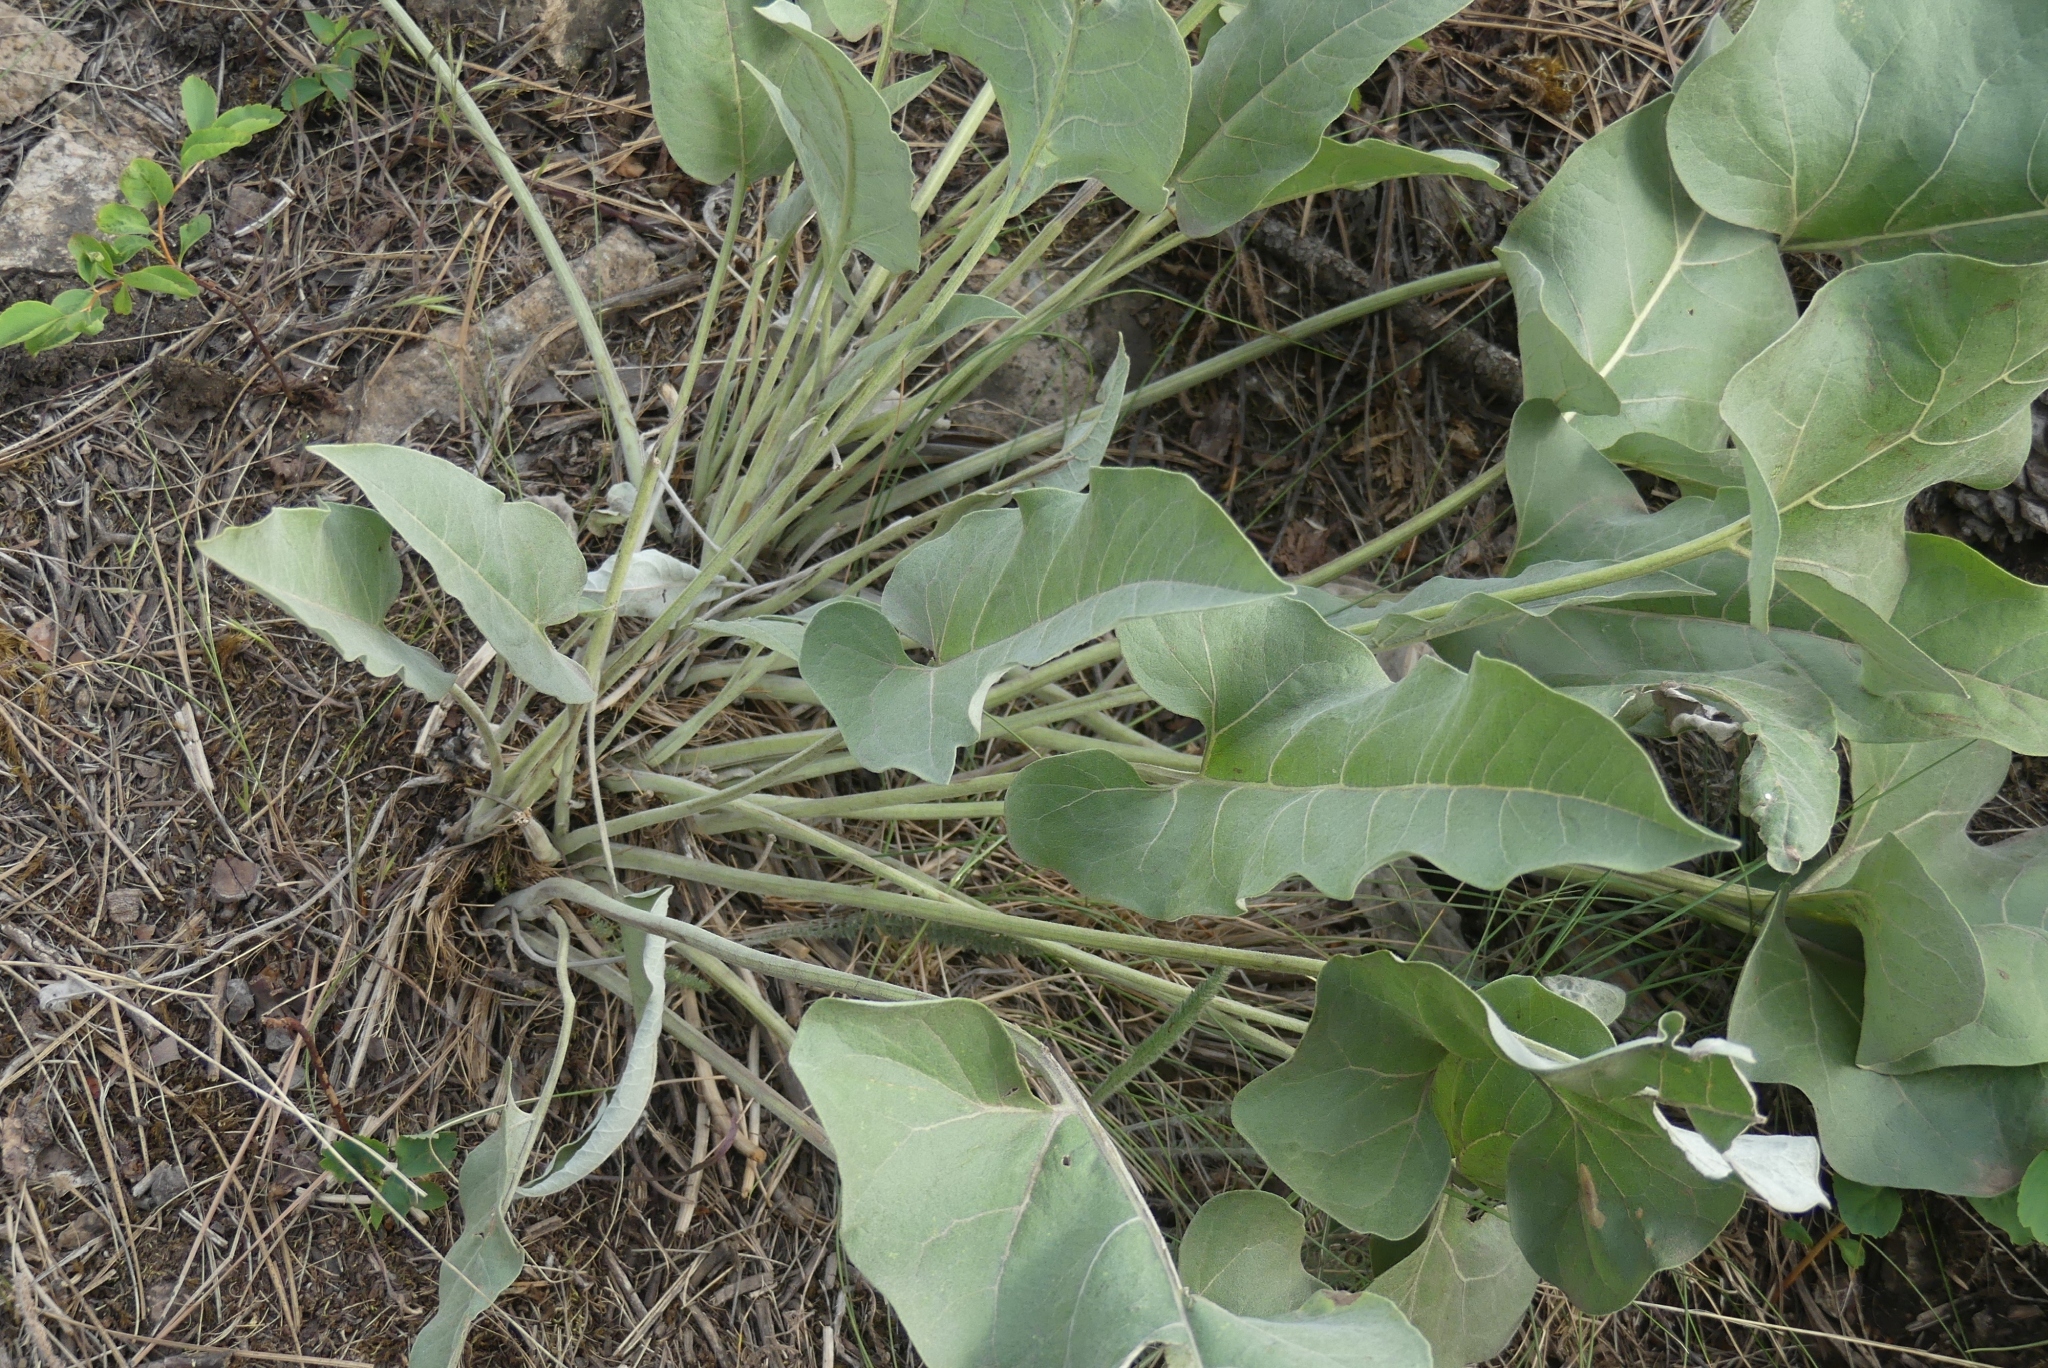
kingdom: Plantae
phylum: Tracheophyta
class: Magnoliopsida
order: Asterales
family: Asteraceae
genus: Wyethia
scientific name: Wyethia sagittata
